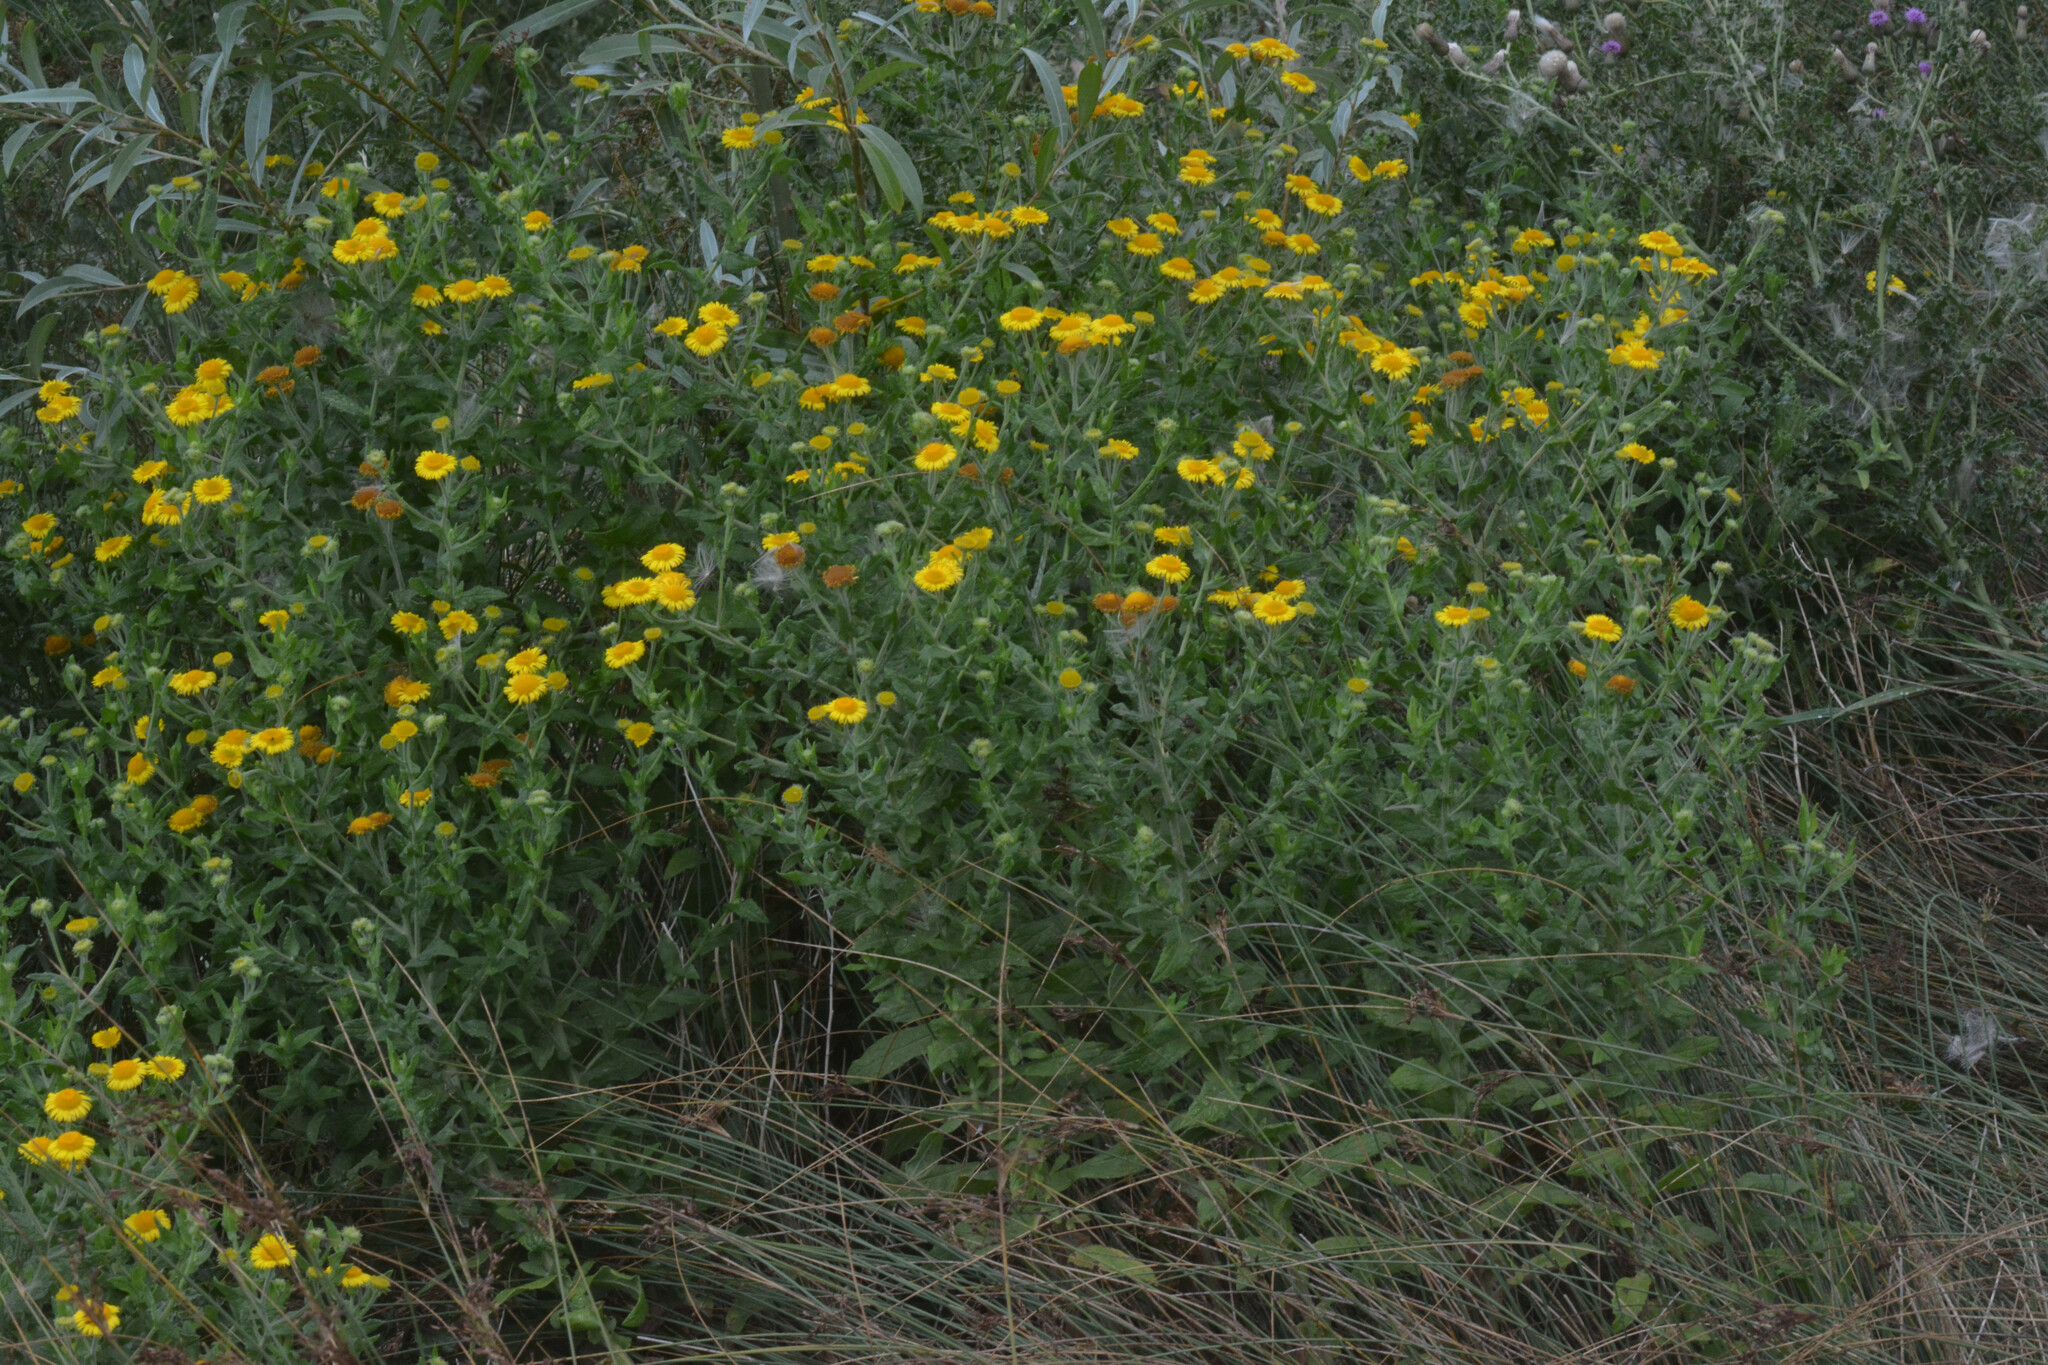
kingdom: Plantae
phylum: Tracheophyta
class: Magnoliopsida
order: Asterales
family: Asteraceae
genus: Pulicaria
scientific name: Pulicaria dysenterica
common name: Common fleabane
